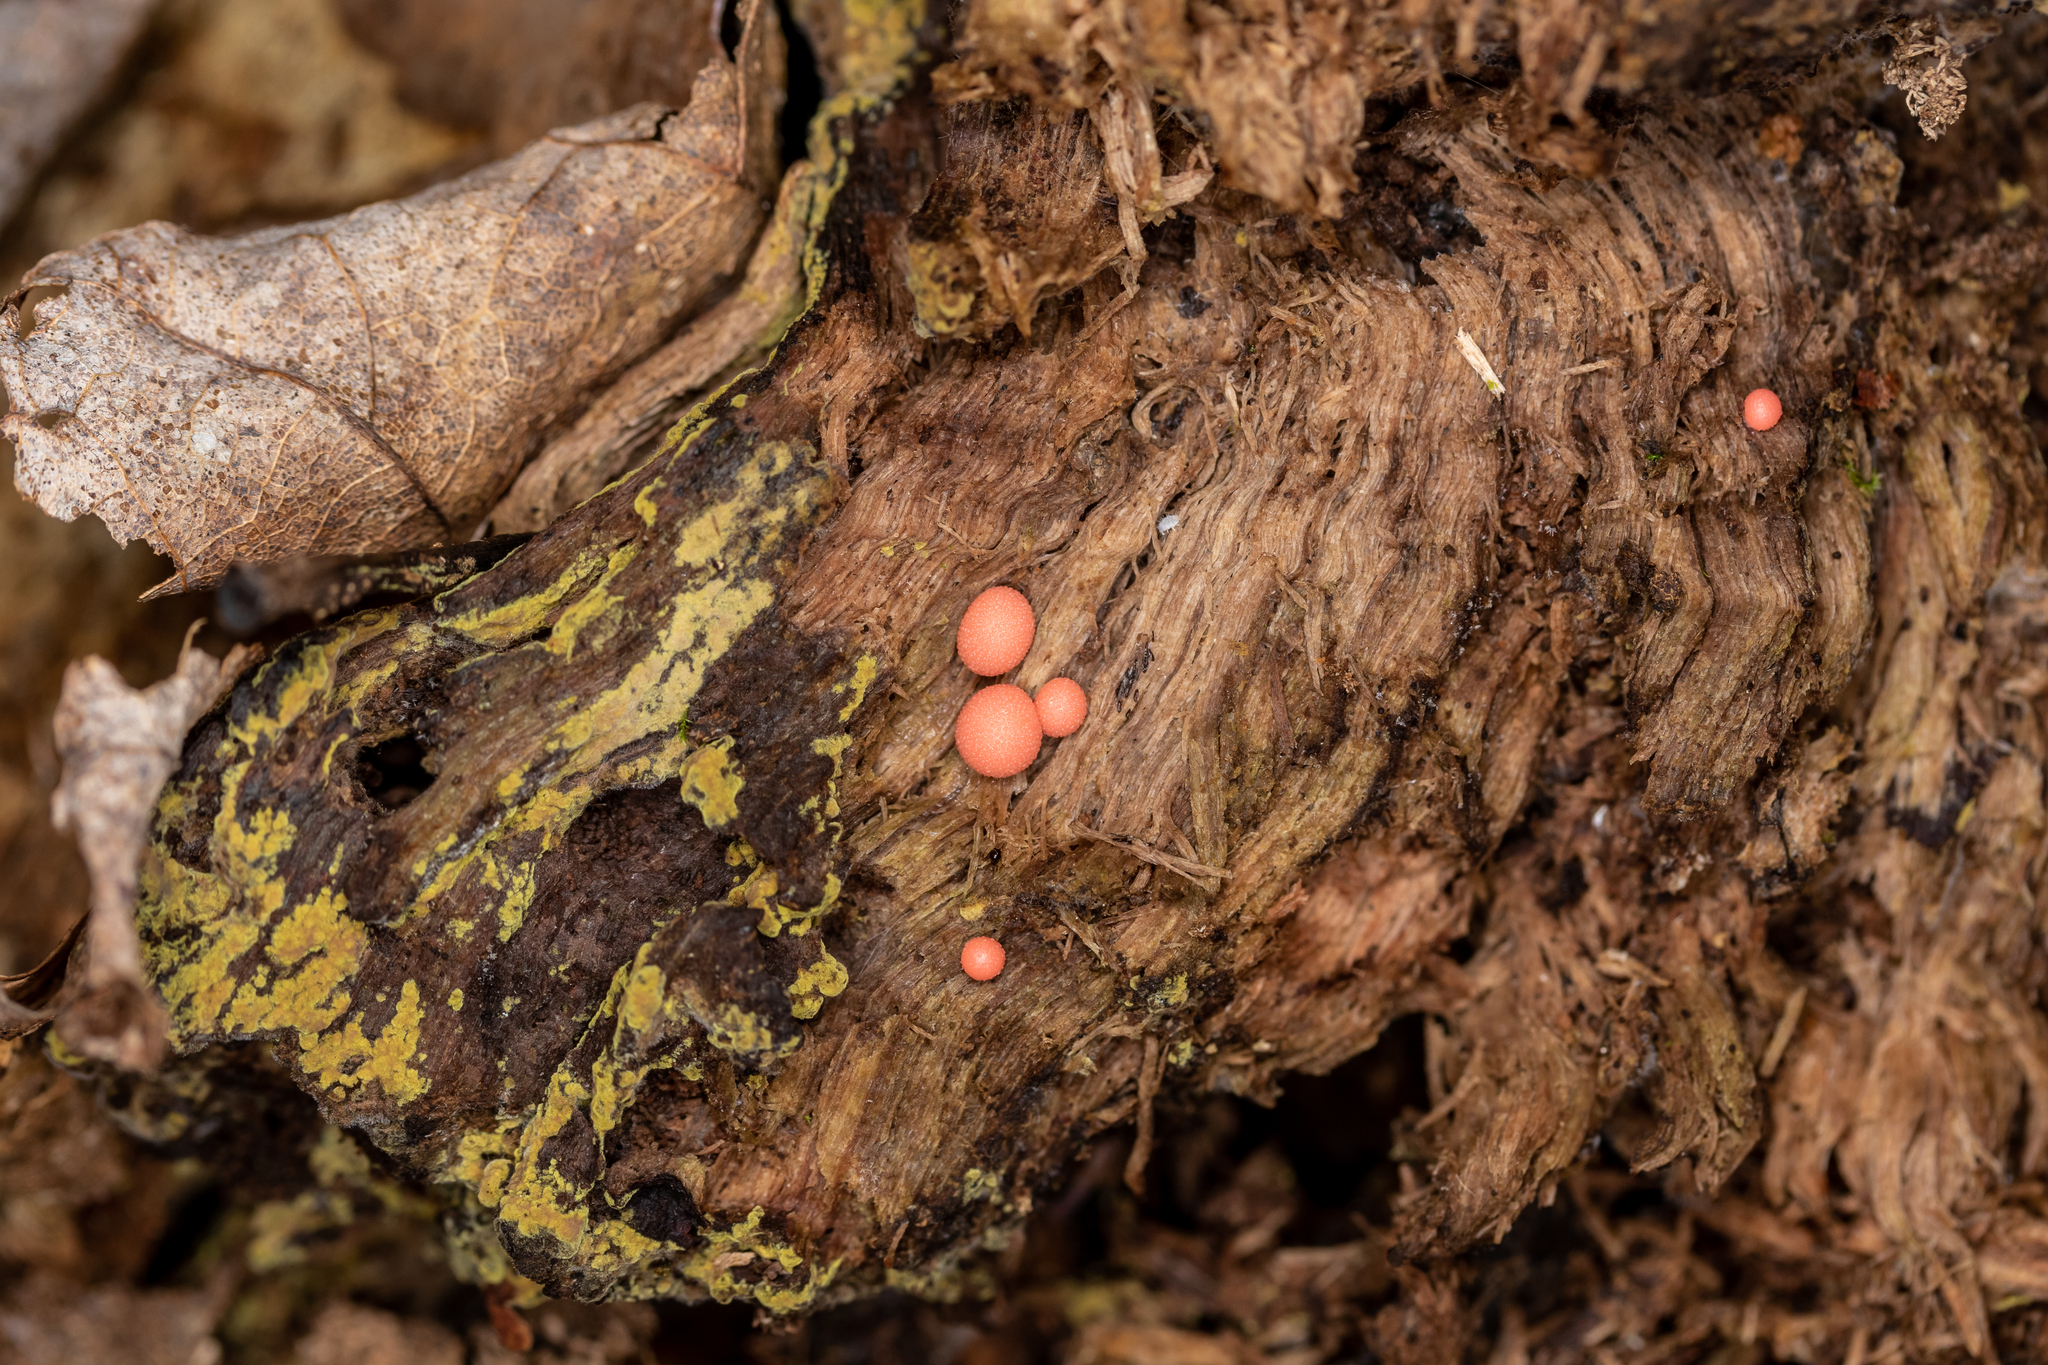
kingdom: Protozoa
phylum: Mycetozoa
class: Myxomycetes
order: Cribrariales
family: Tubiferaceae
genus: Lycogala
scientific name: Lycogala epidendrum
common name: Wolf's milk
